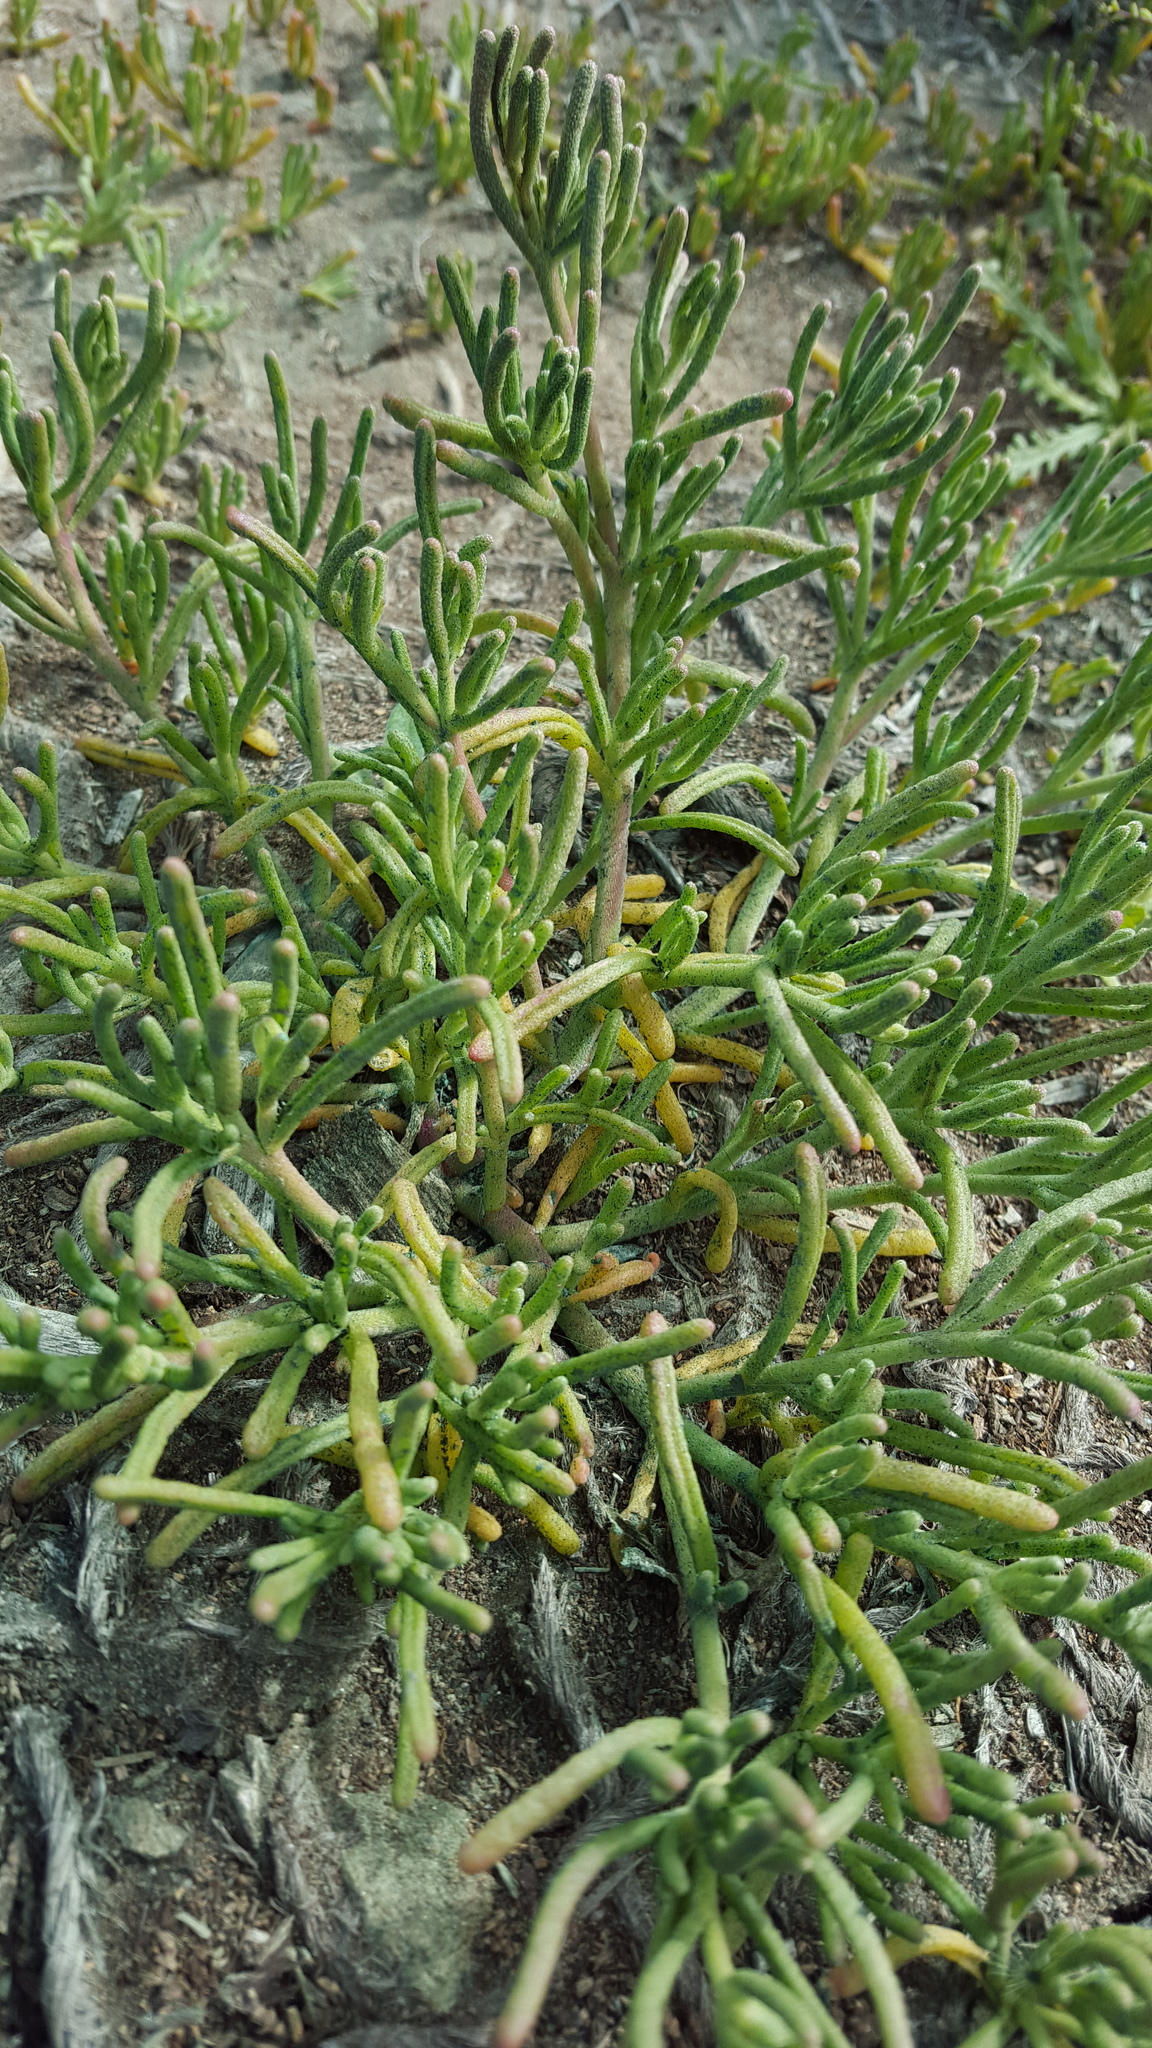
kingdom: Plantae
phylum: Tracheophyta
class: Magnoliopsida
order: Solanales
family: Solanaceae
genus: Lycium
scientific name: Lycium californicum
